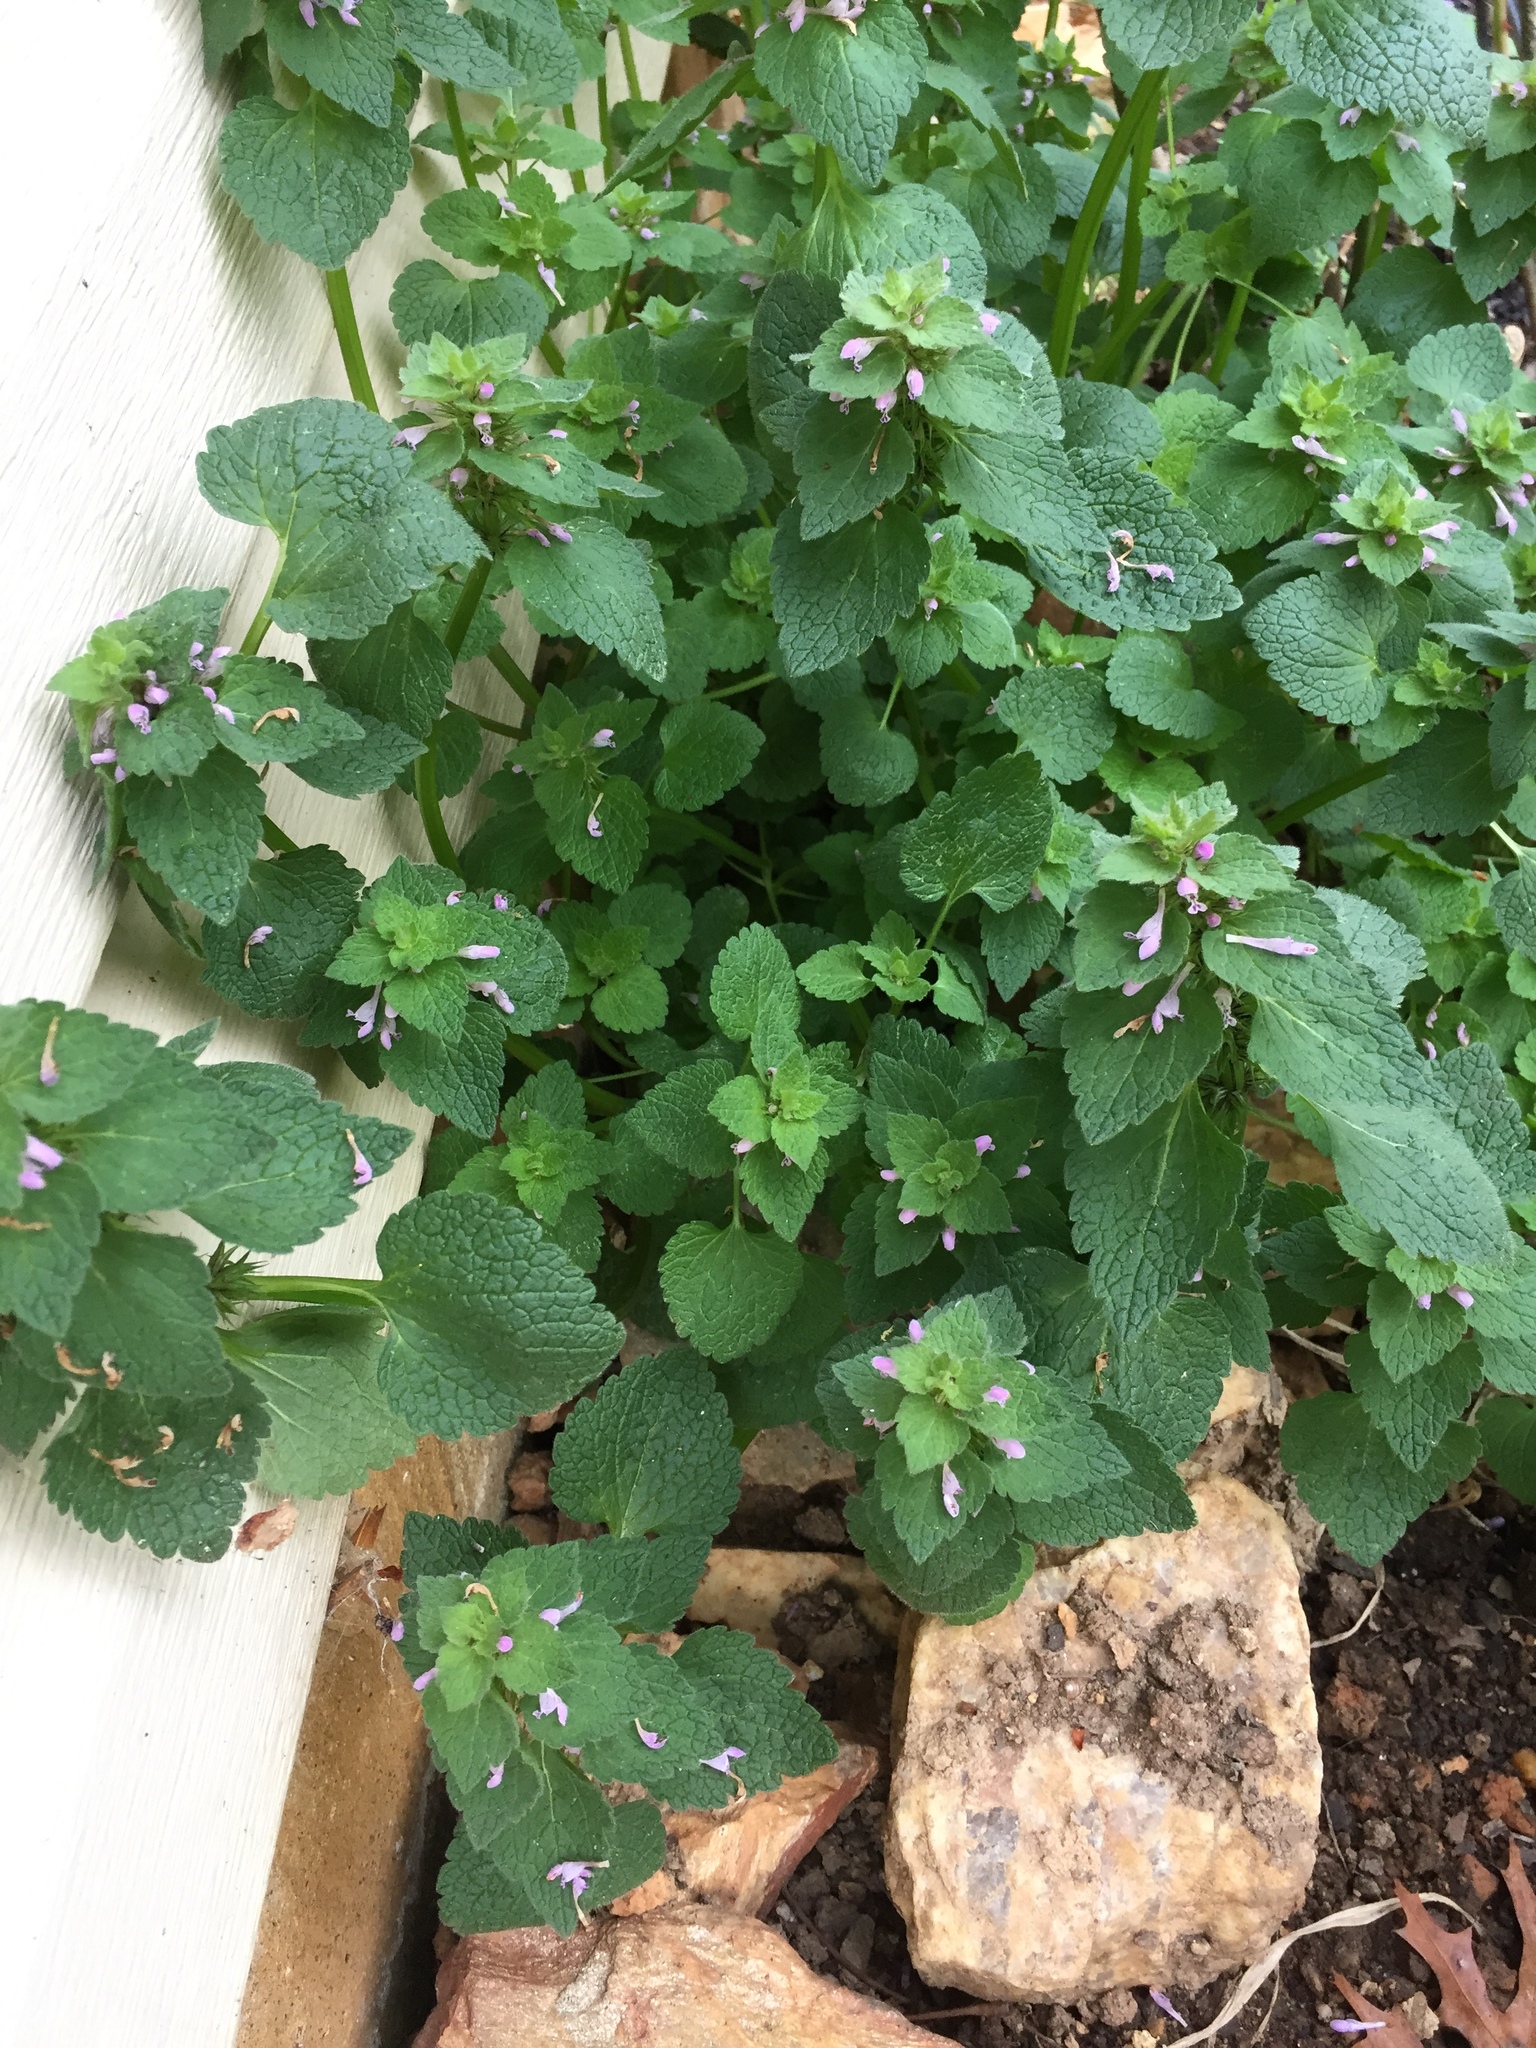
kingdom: Plantae
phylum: Tracheophyta
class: Magnoliopsida
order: Lamiales
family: Lamiaceae
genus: Lamium
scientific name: Lamium purpureum
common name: Red dead-nettle
